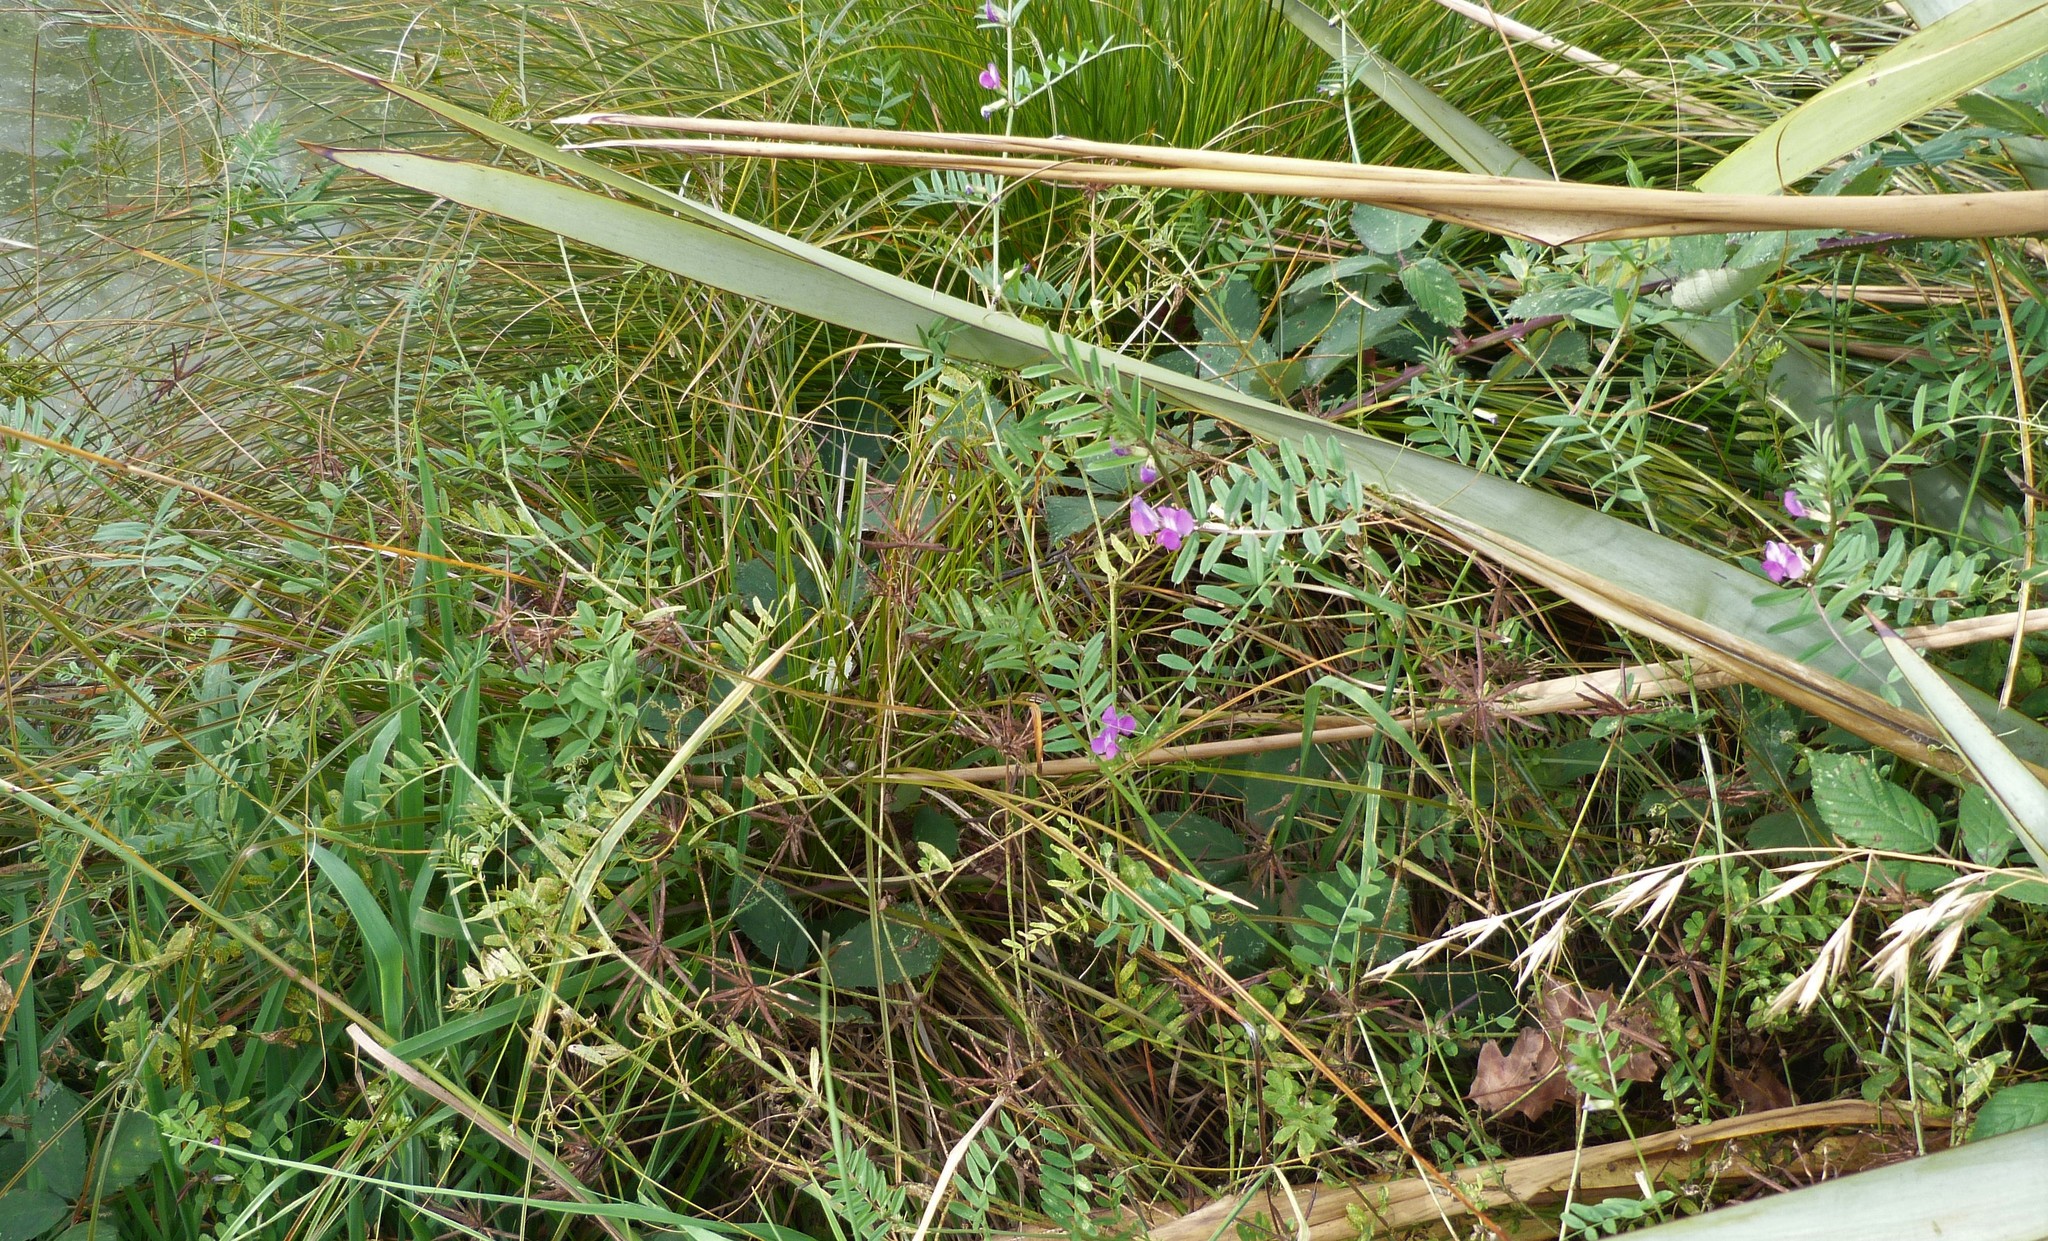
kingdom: Plantae
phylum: Tracheophyta
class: Magnoliopsida
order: Fabales
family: Fabaceae
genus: Vicia
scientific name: Vicia sativa
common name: Garden vetch
